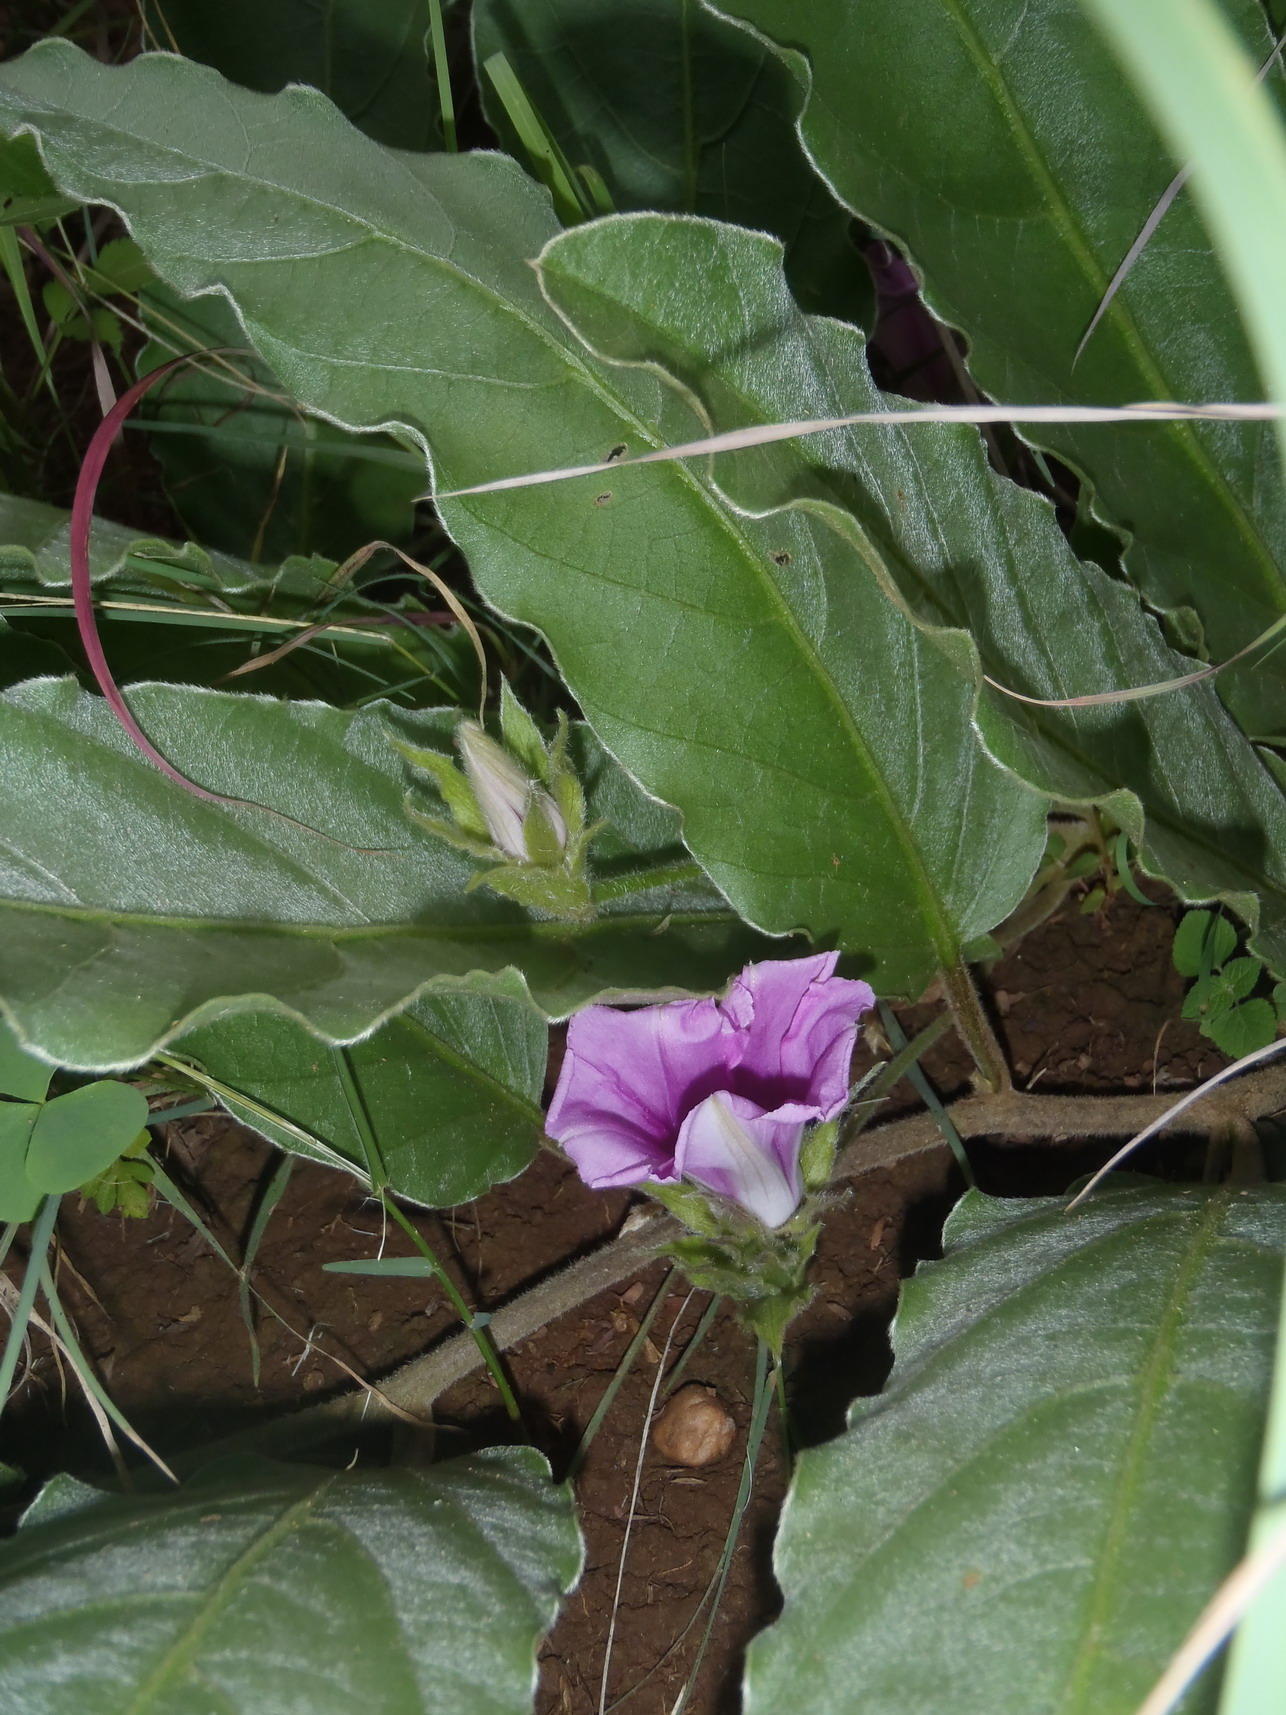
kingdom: Plantae
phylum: Tracheophyta
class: Magnoliopsida
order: Solanales
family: Convolvulaceae
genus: Ipomoea
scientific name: Ipomoea ommanneyi
